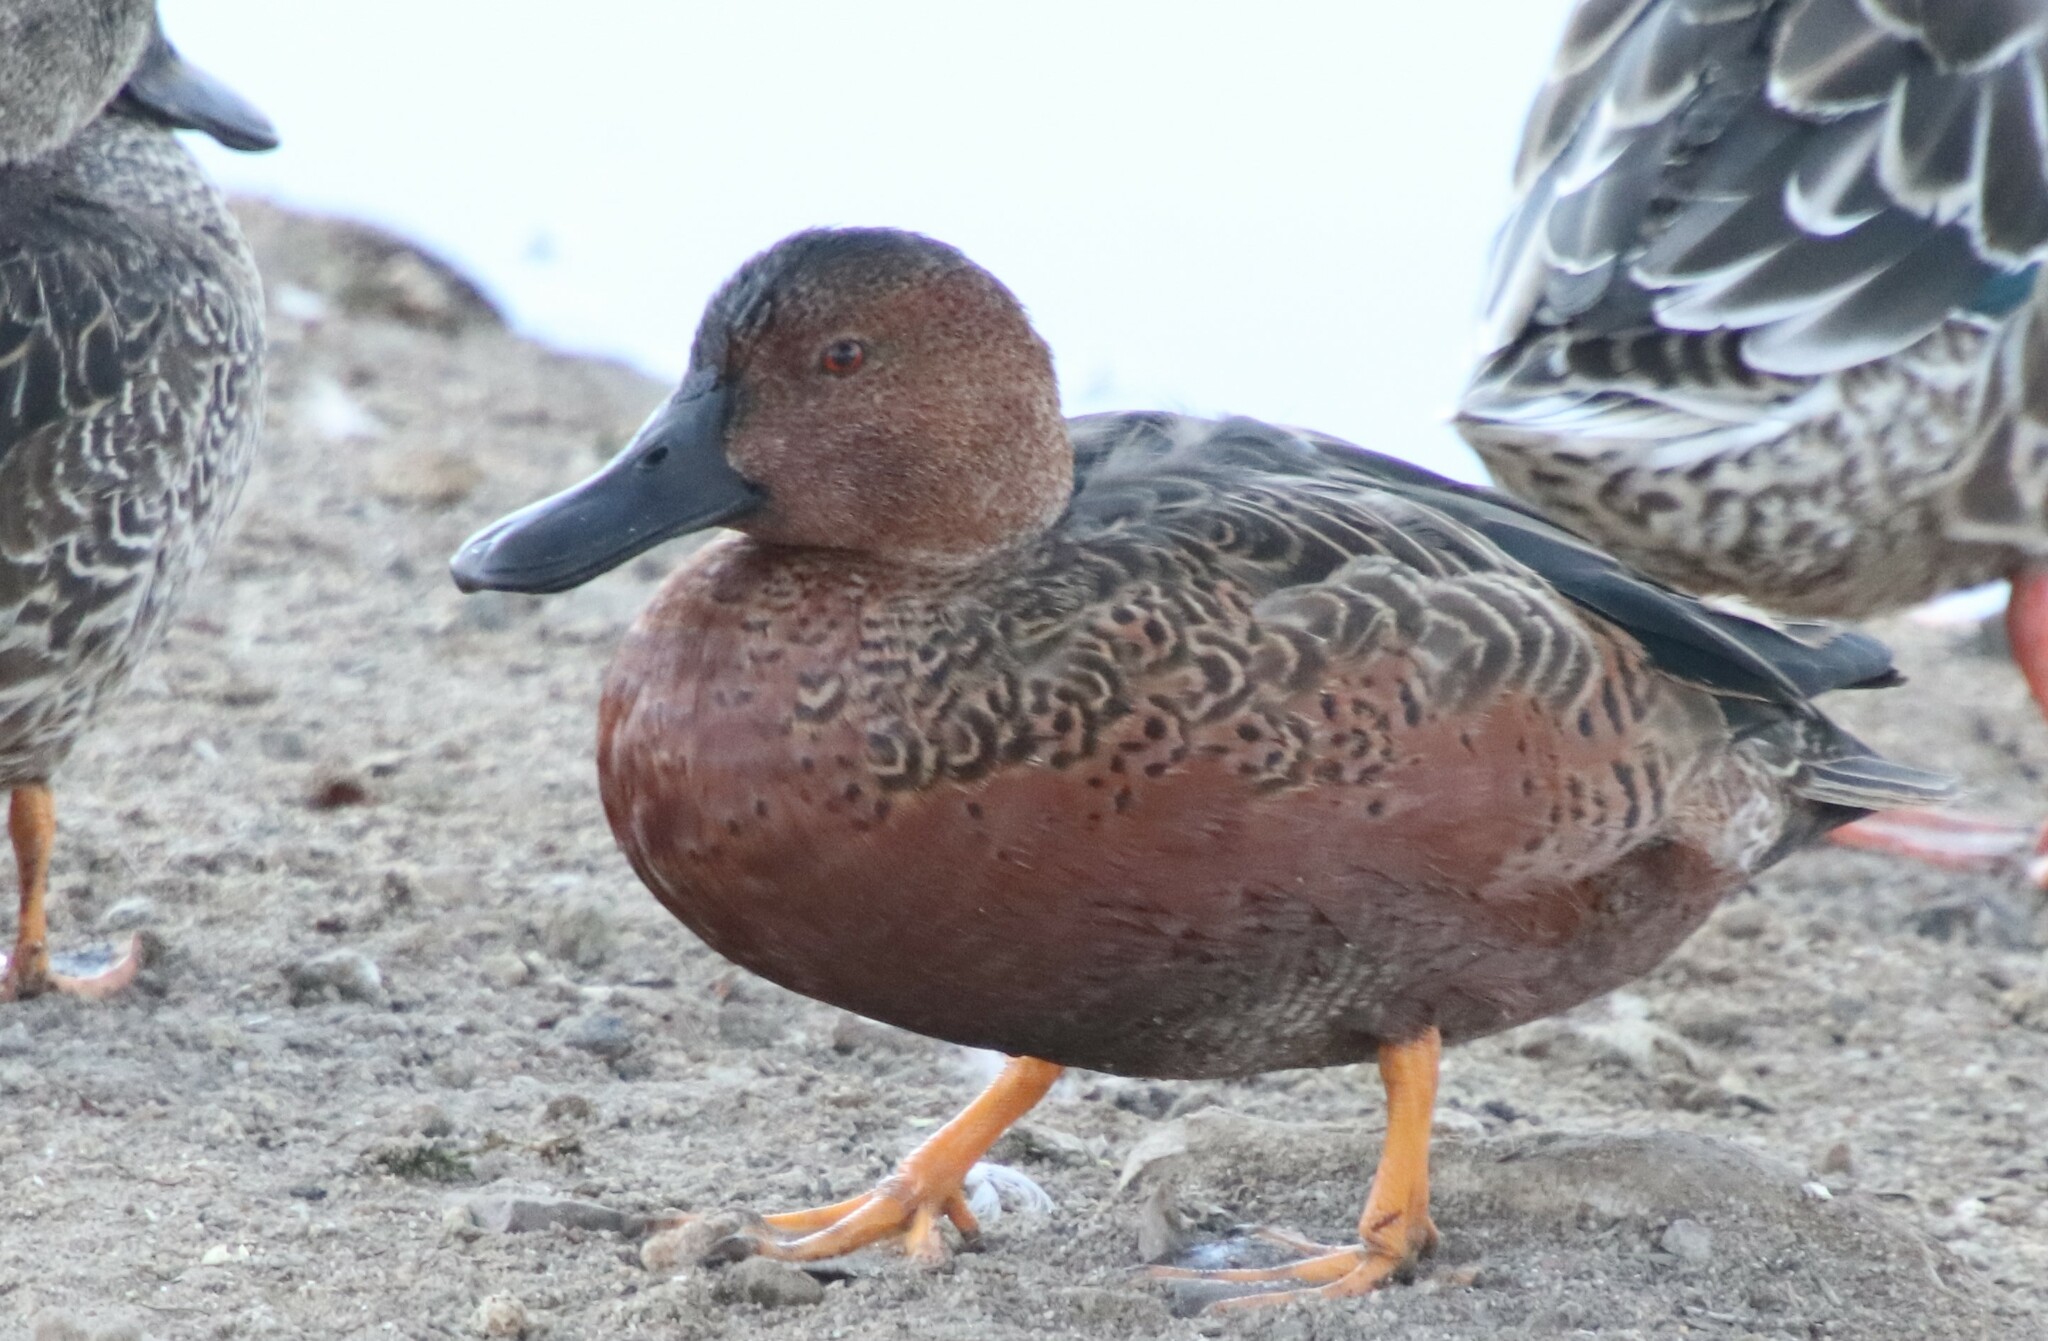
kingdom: Animalia
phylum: Chordata
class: Aves
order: Anseriformes
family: Anatidae
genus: Spatula
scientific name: Spatula cyanoptera
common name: Cinnamon teal
